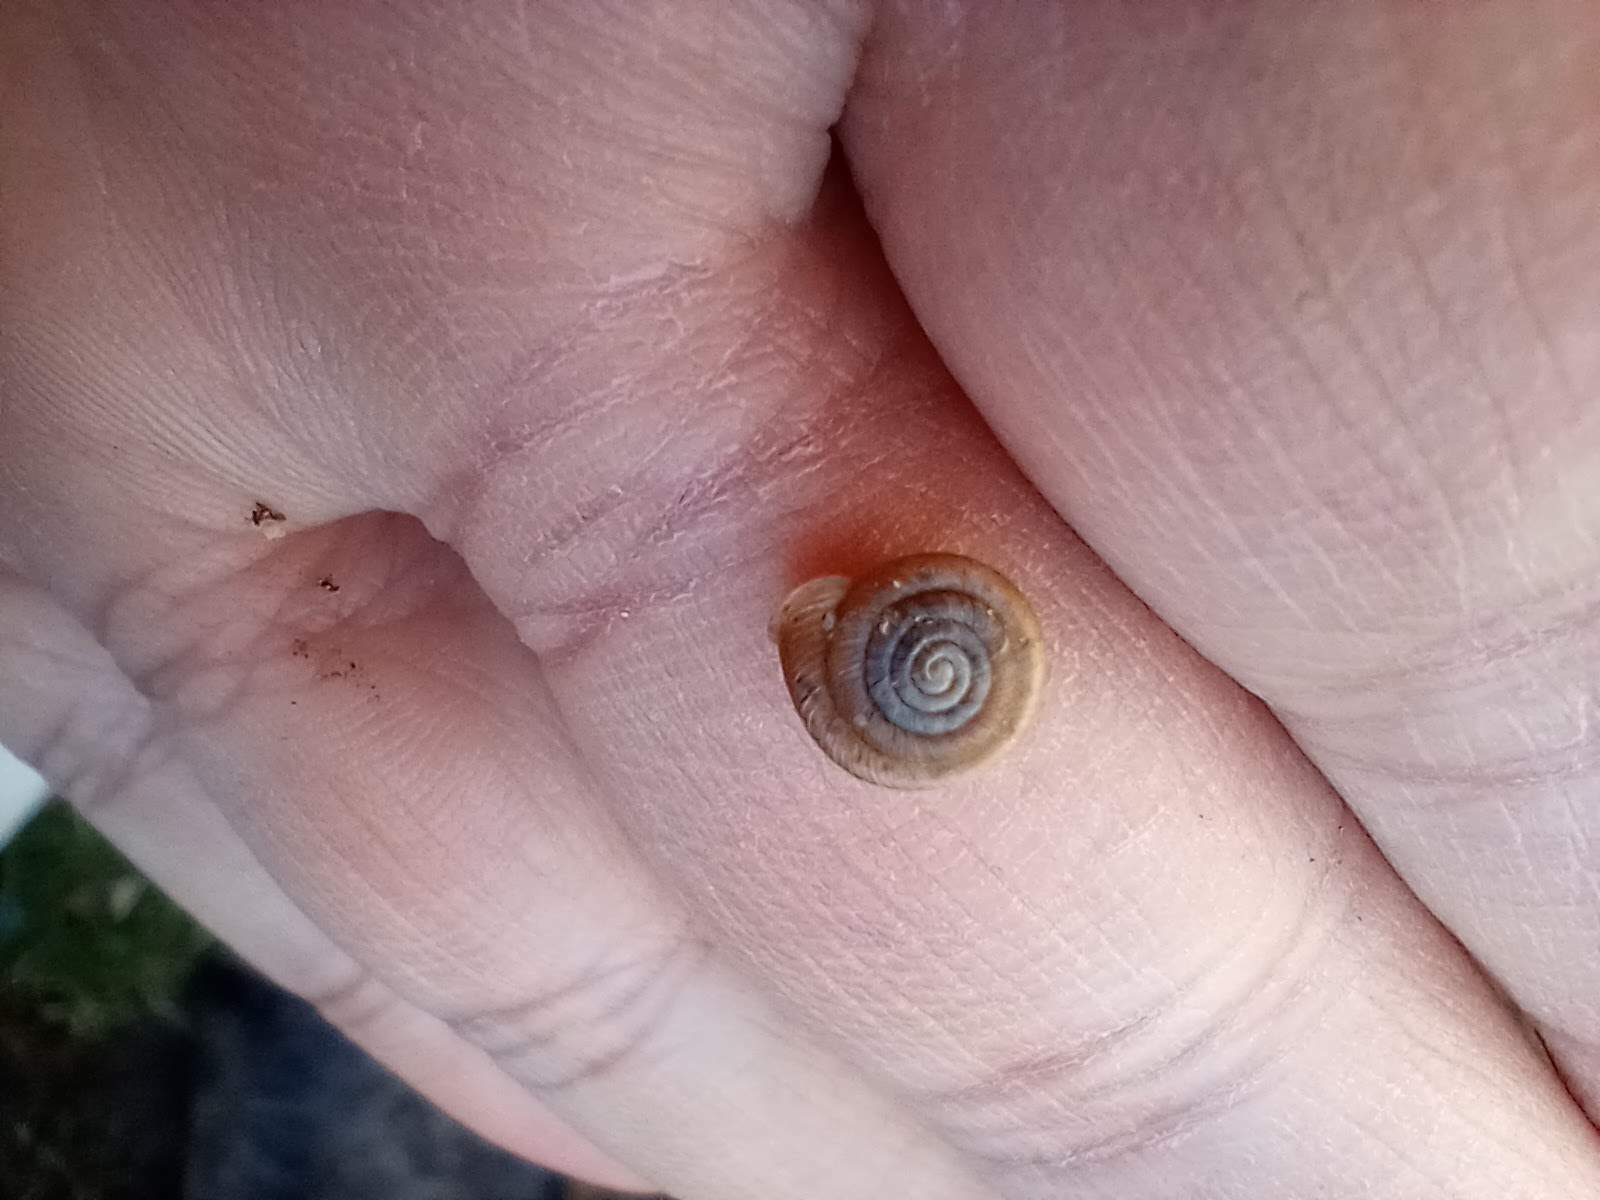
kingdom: Animalia
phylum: Mollusca
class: Gastropoda
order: Stylommatophora
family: Polygyridae
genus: Polygyra
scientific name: Polygyra cereolus
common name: Southern flatcone snail
